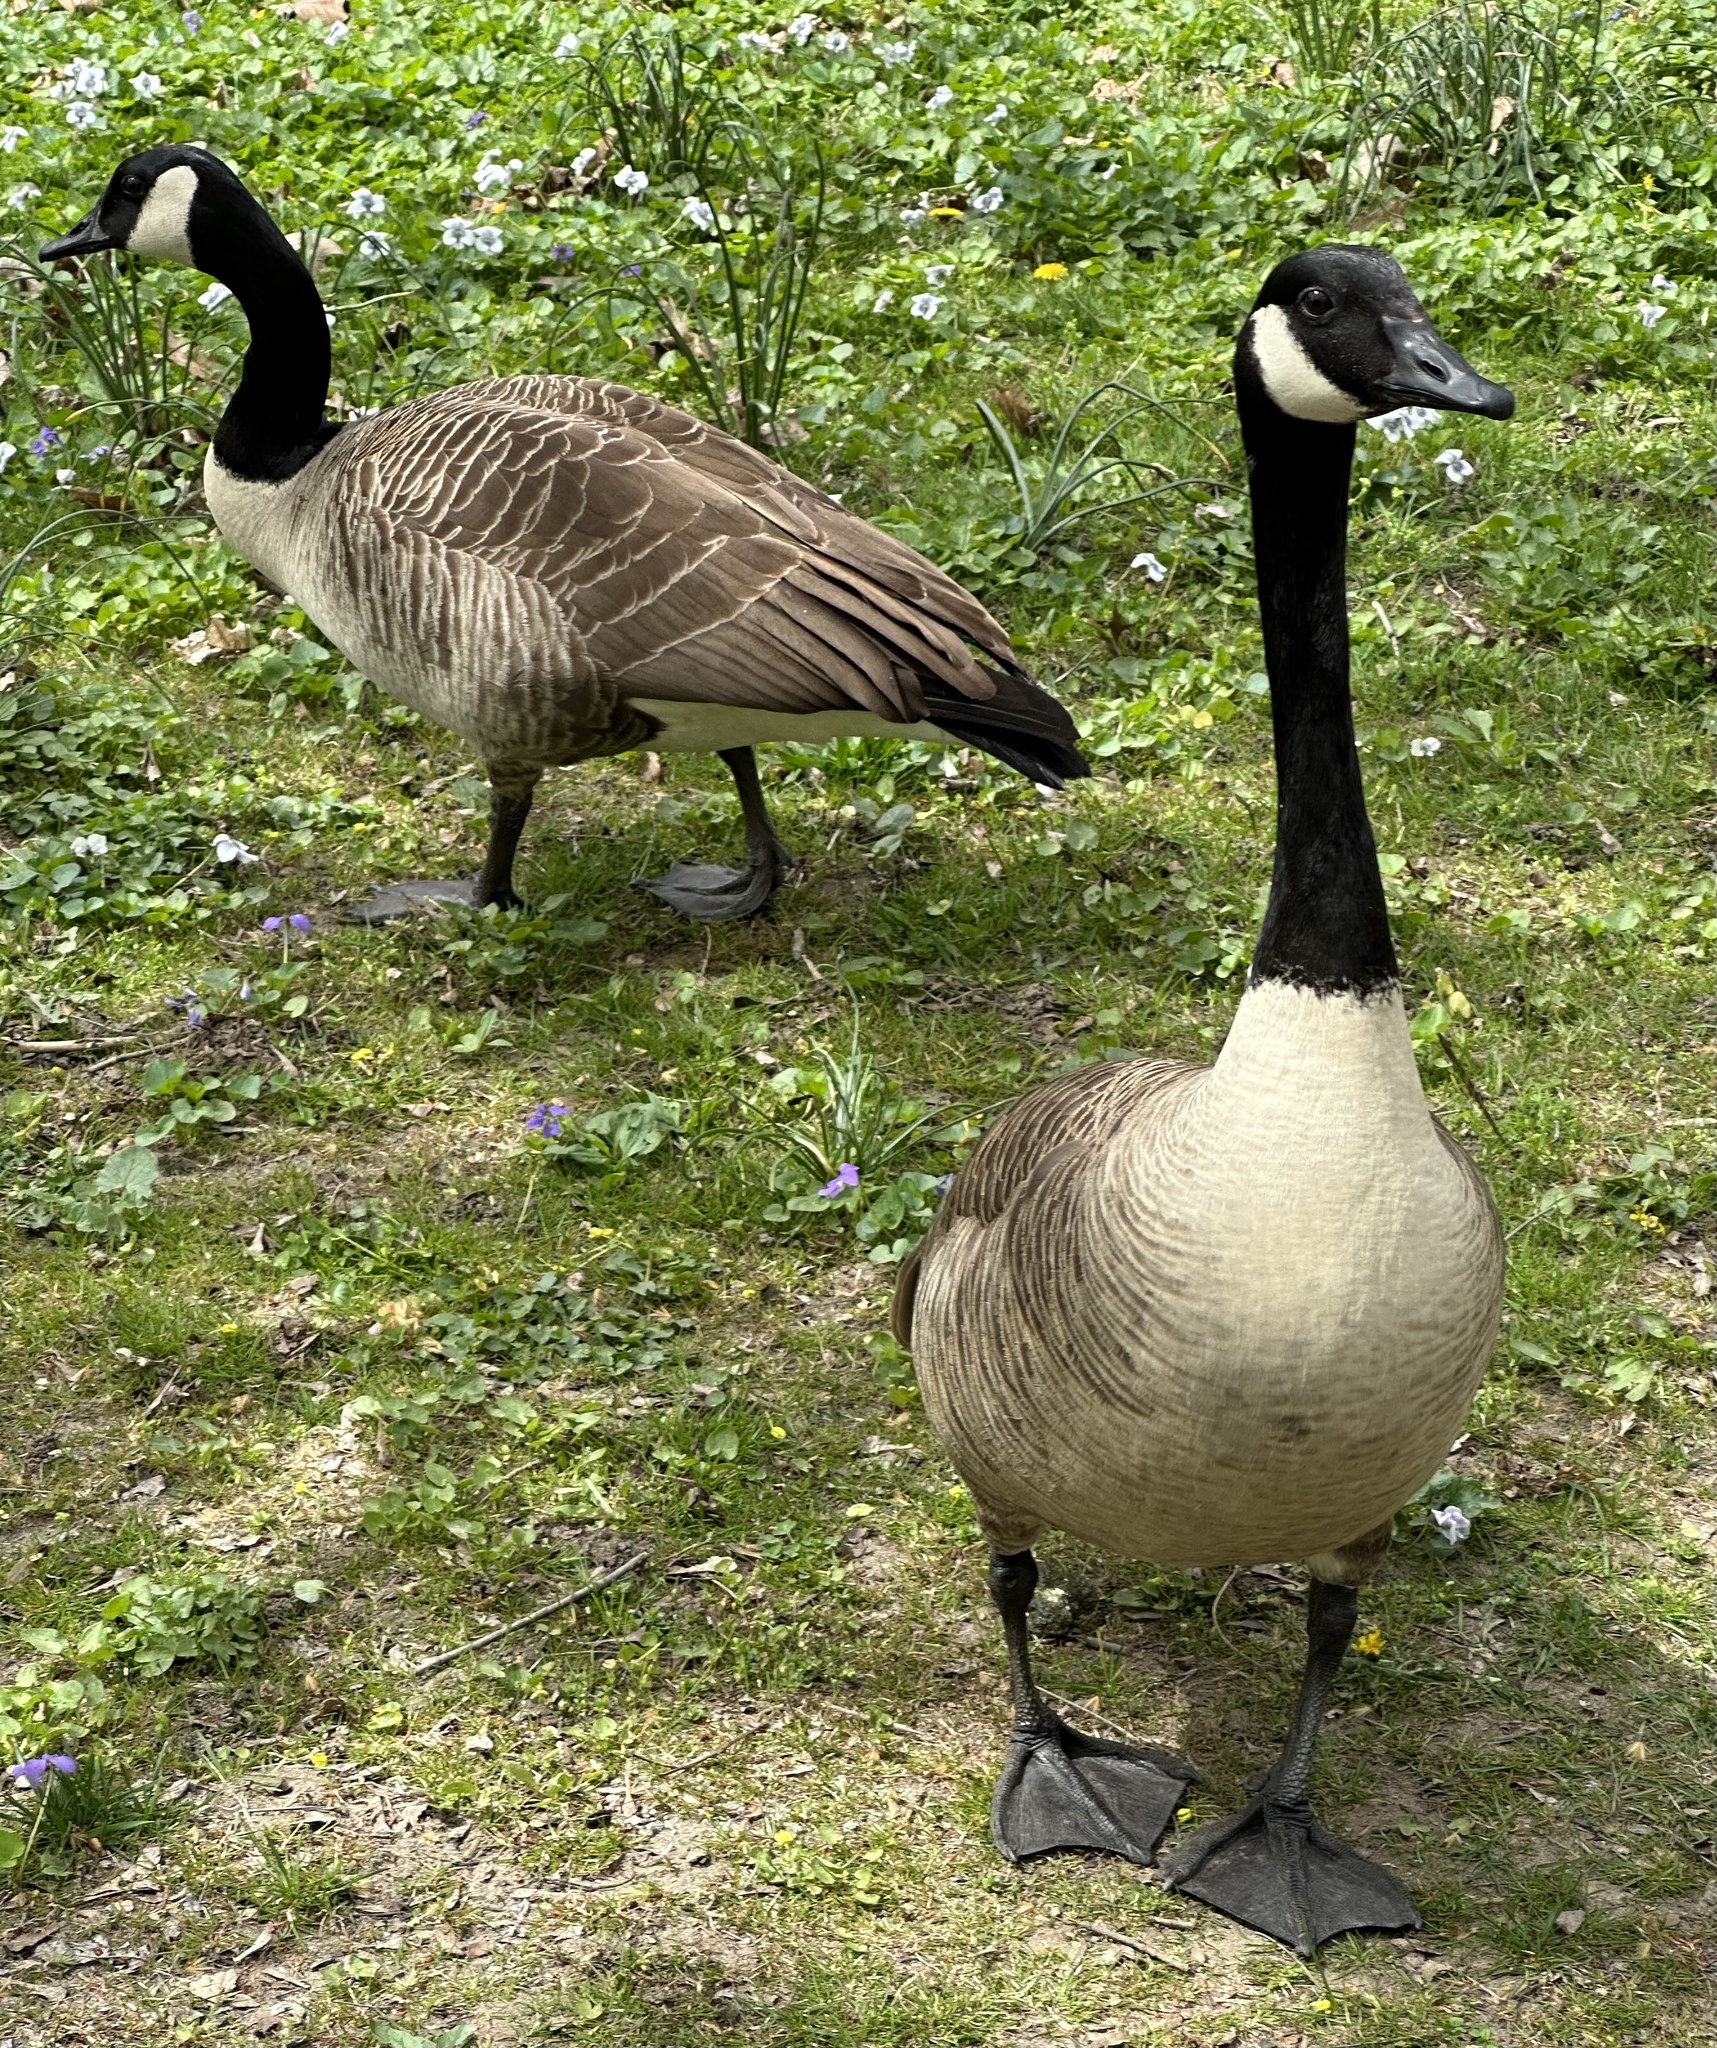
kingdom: Animalia
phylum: Chordata
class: Aves
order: Anseriformes
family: Anatidae
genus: Branta
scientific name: Branta canadensis
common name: Canada goose
